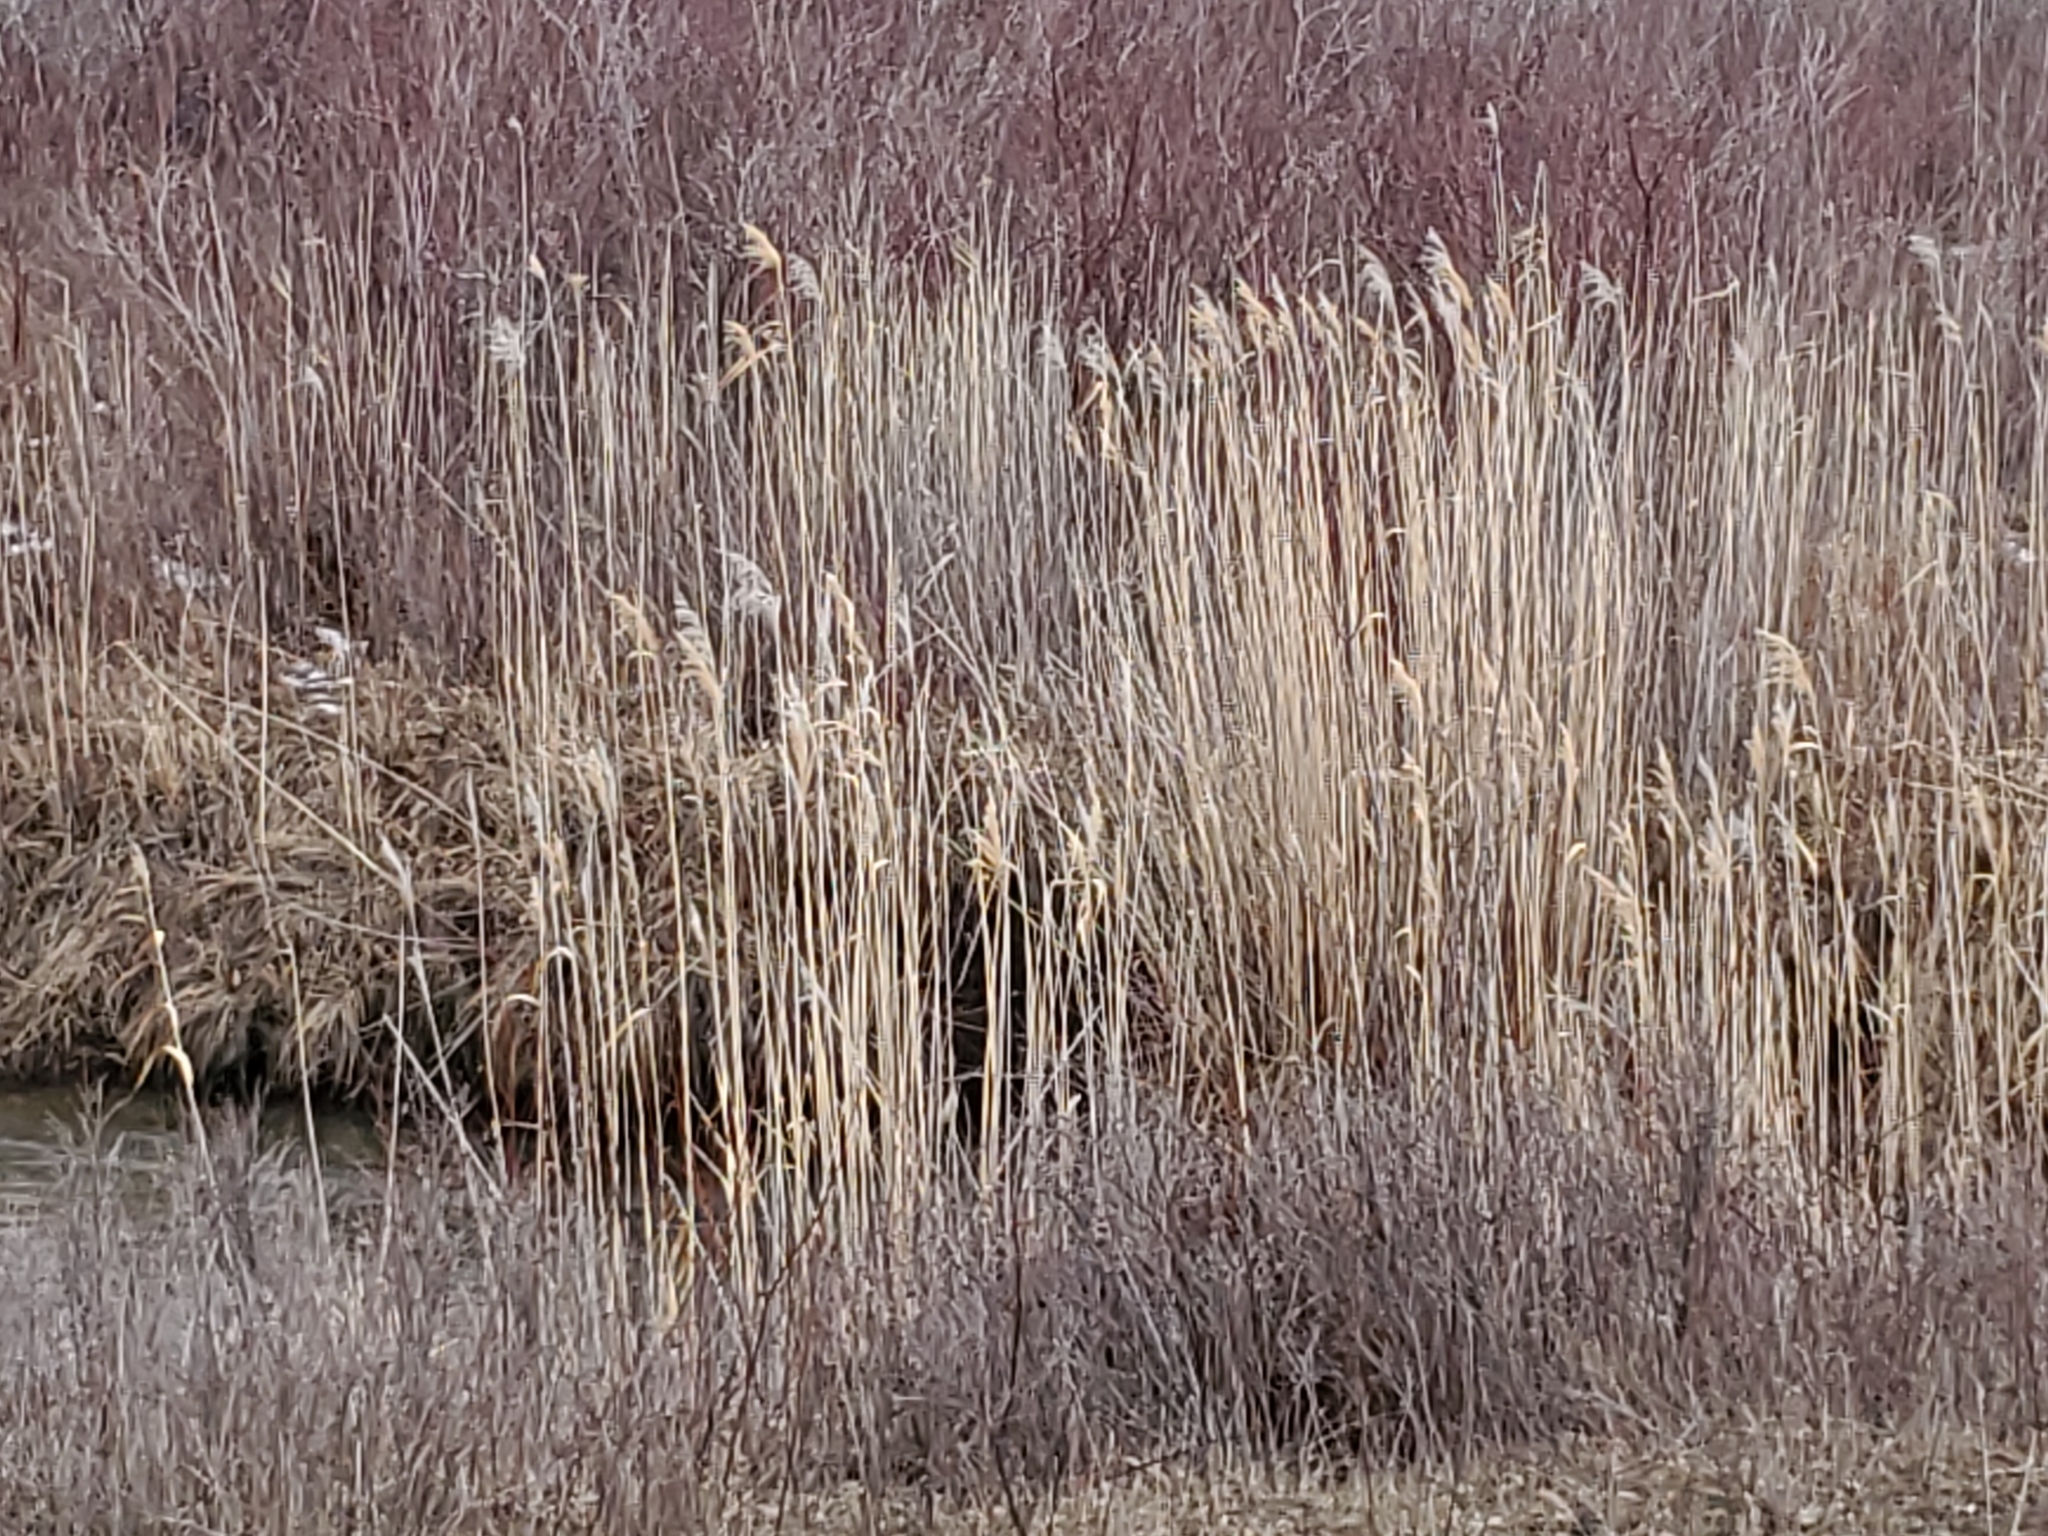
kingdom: Plantae
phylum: Tracheophyta
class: Liliopsida
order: Poales
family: Poaceae
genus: Phragmites
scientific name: Phragmites australis
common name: Common reed
